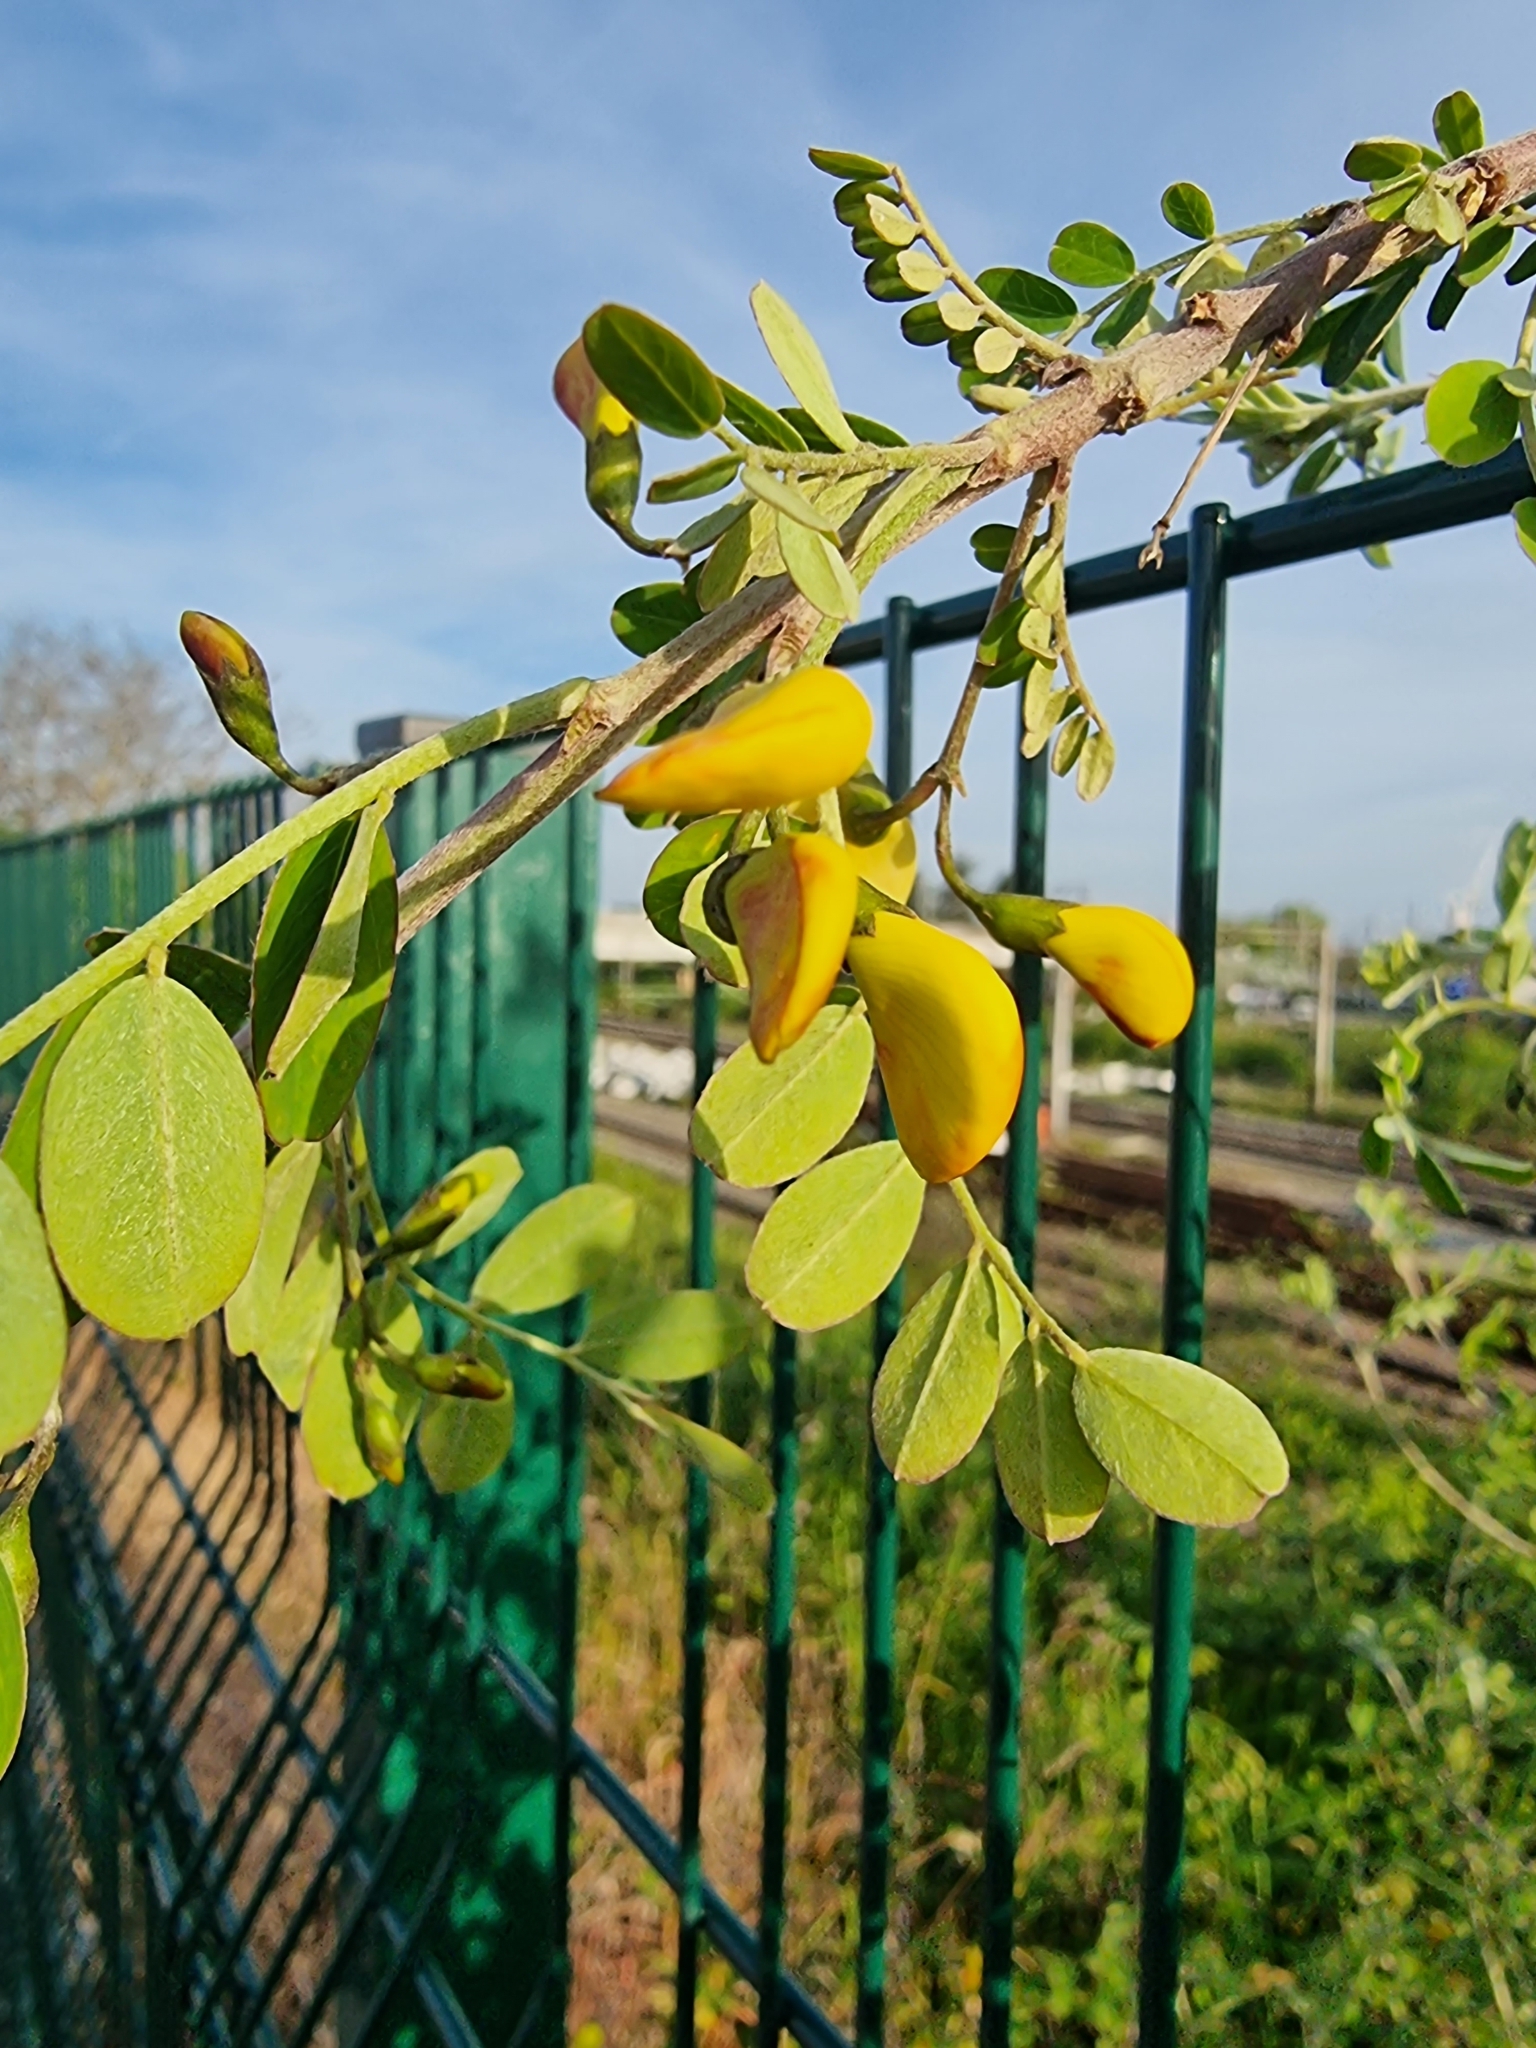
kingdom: Plantae
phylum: Tracheophyta
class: Magnoliopsida
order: Fabales
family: Fabaceae
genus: Colutea
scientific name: Colutea arborescens
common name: Bladder-senna
